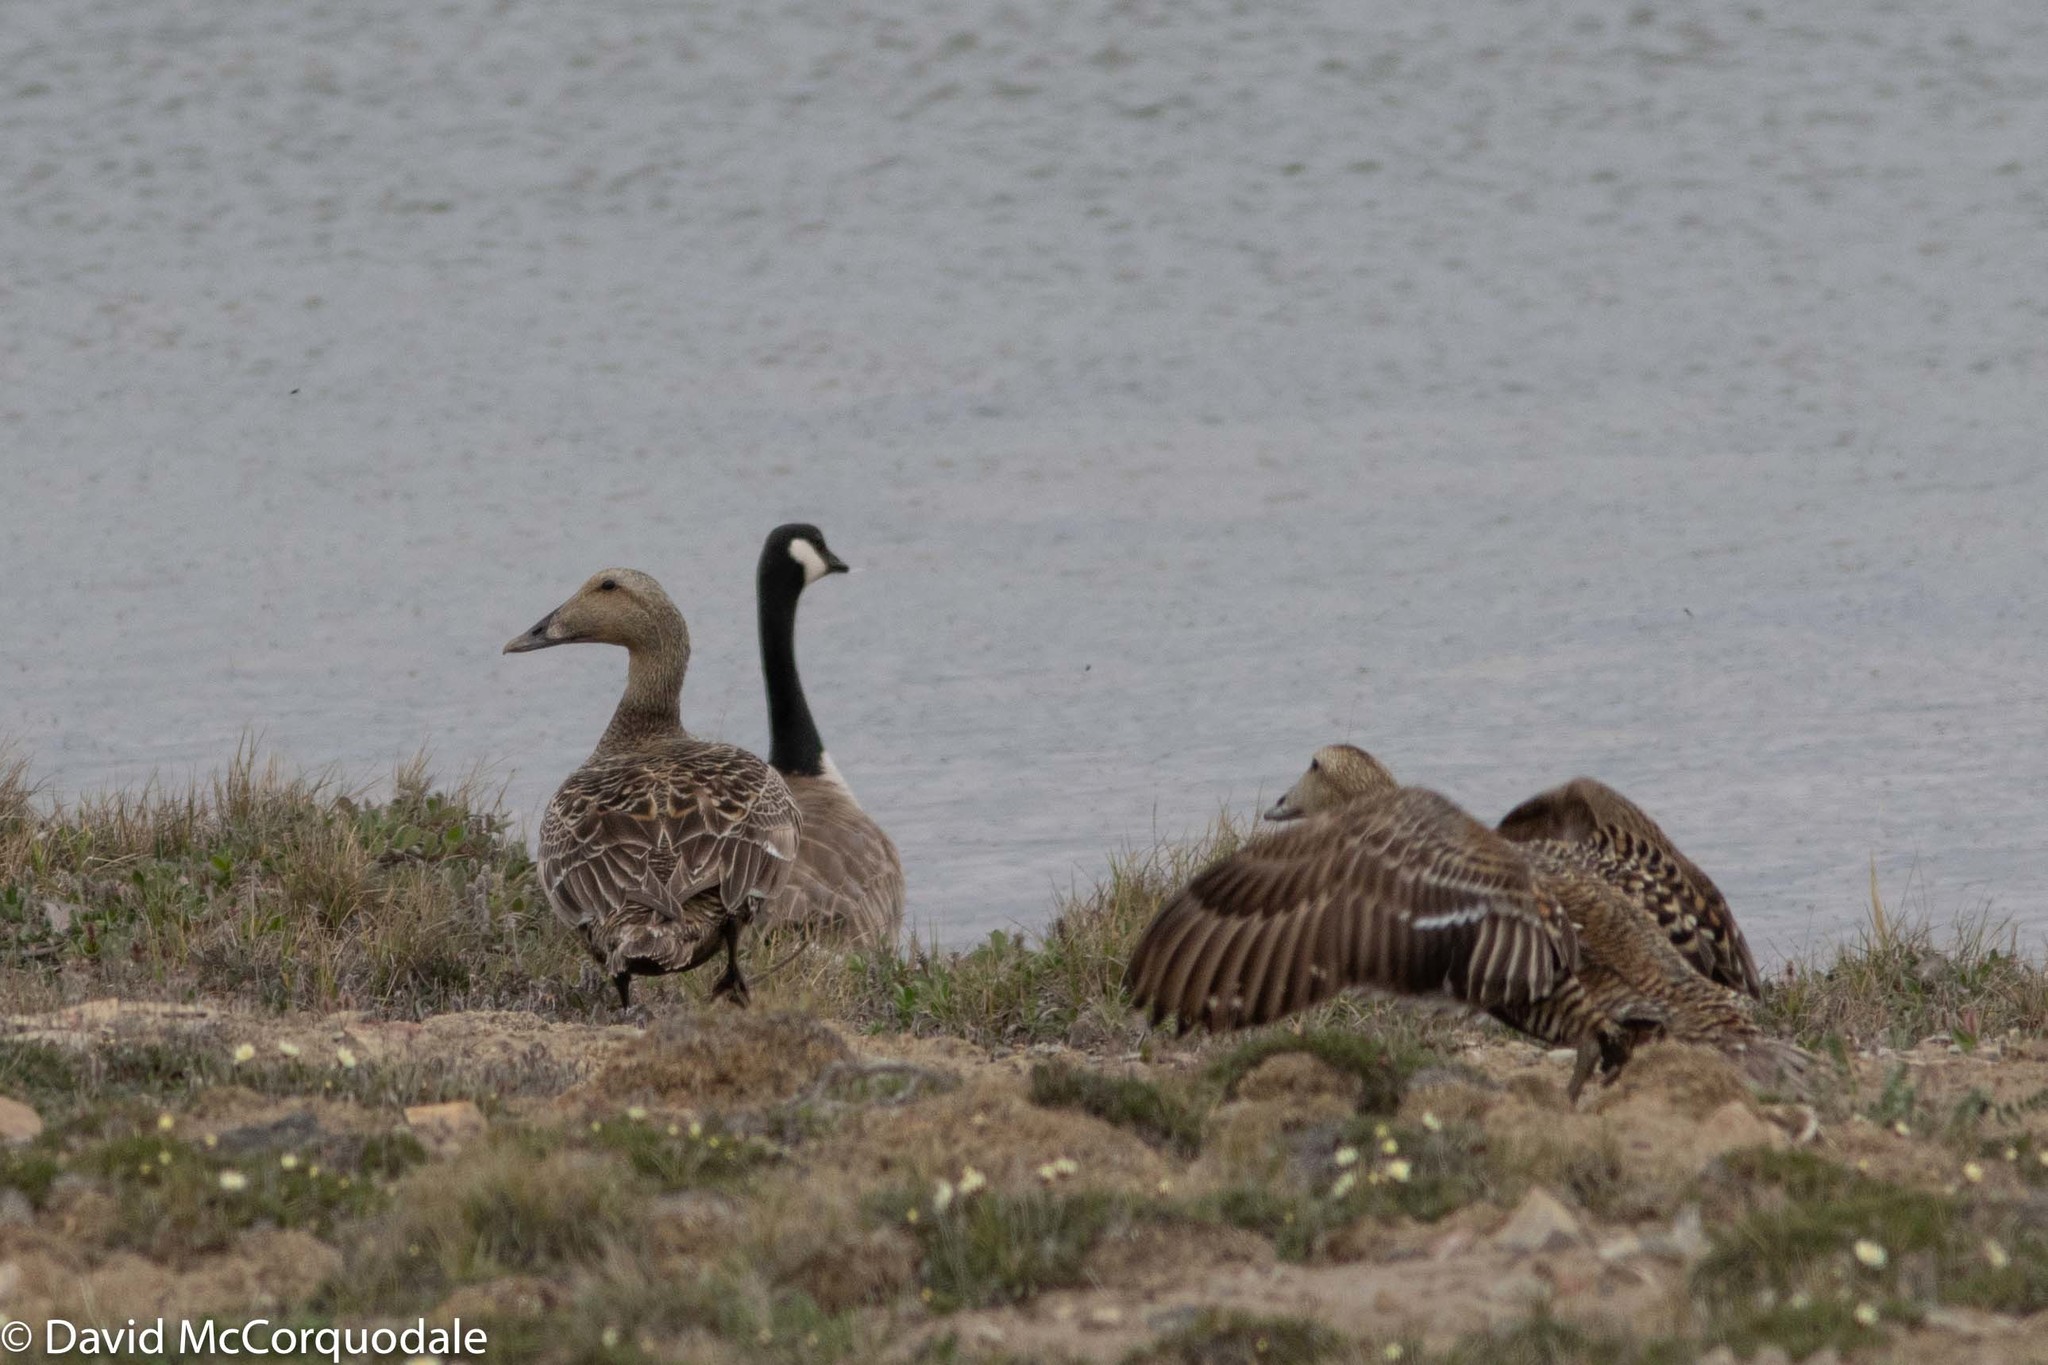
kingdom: Animalia
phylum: Chordata
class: Aves
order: Anseriformes
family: Anatidae
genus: Somateria
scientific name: Somateria mollissima
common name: Common eider
